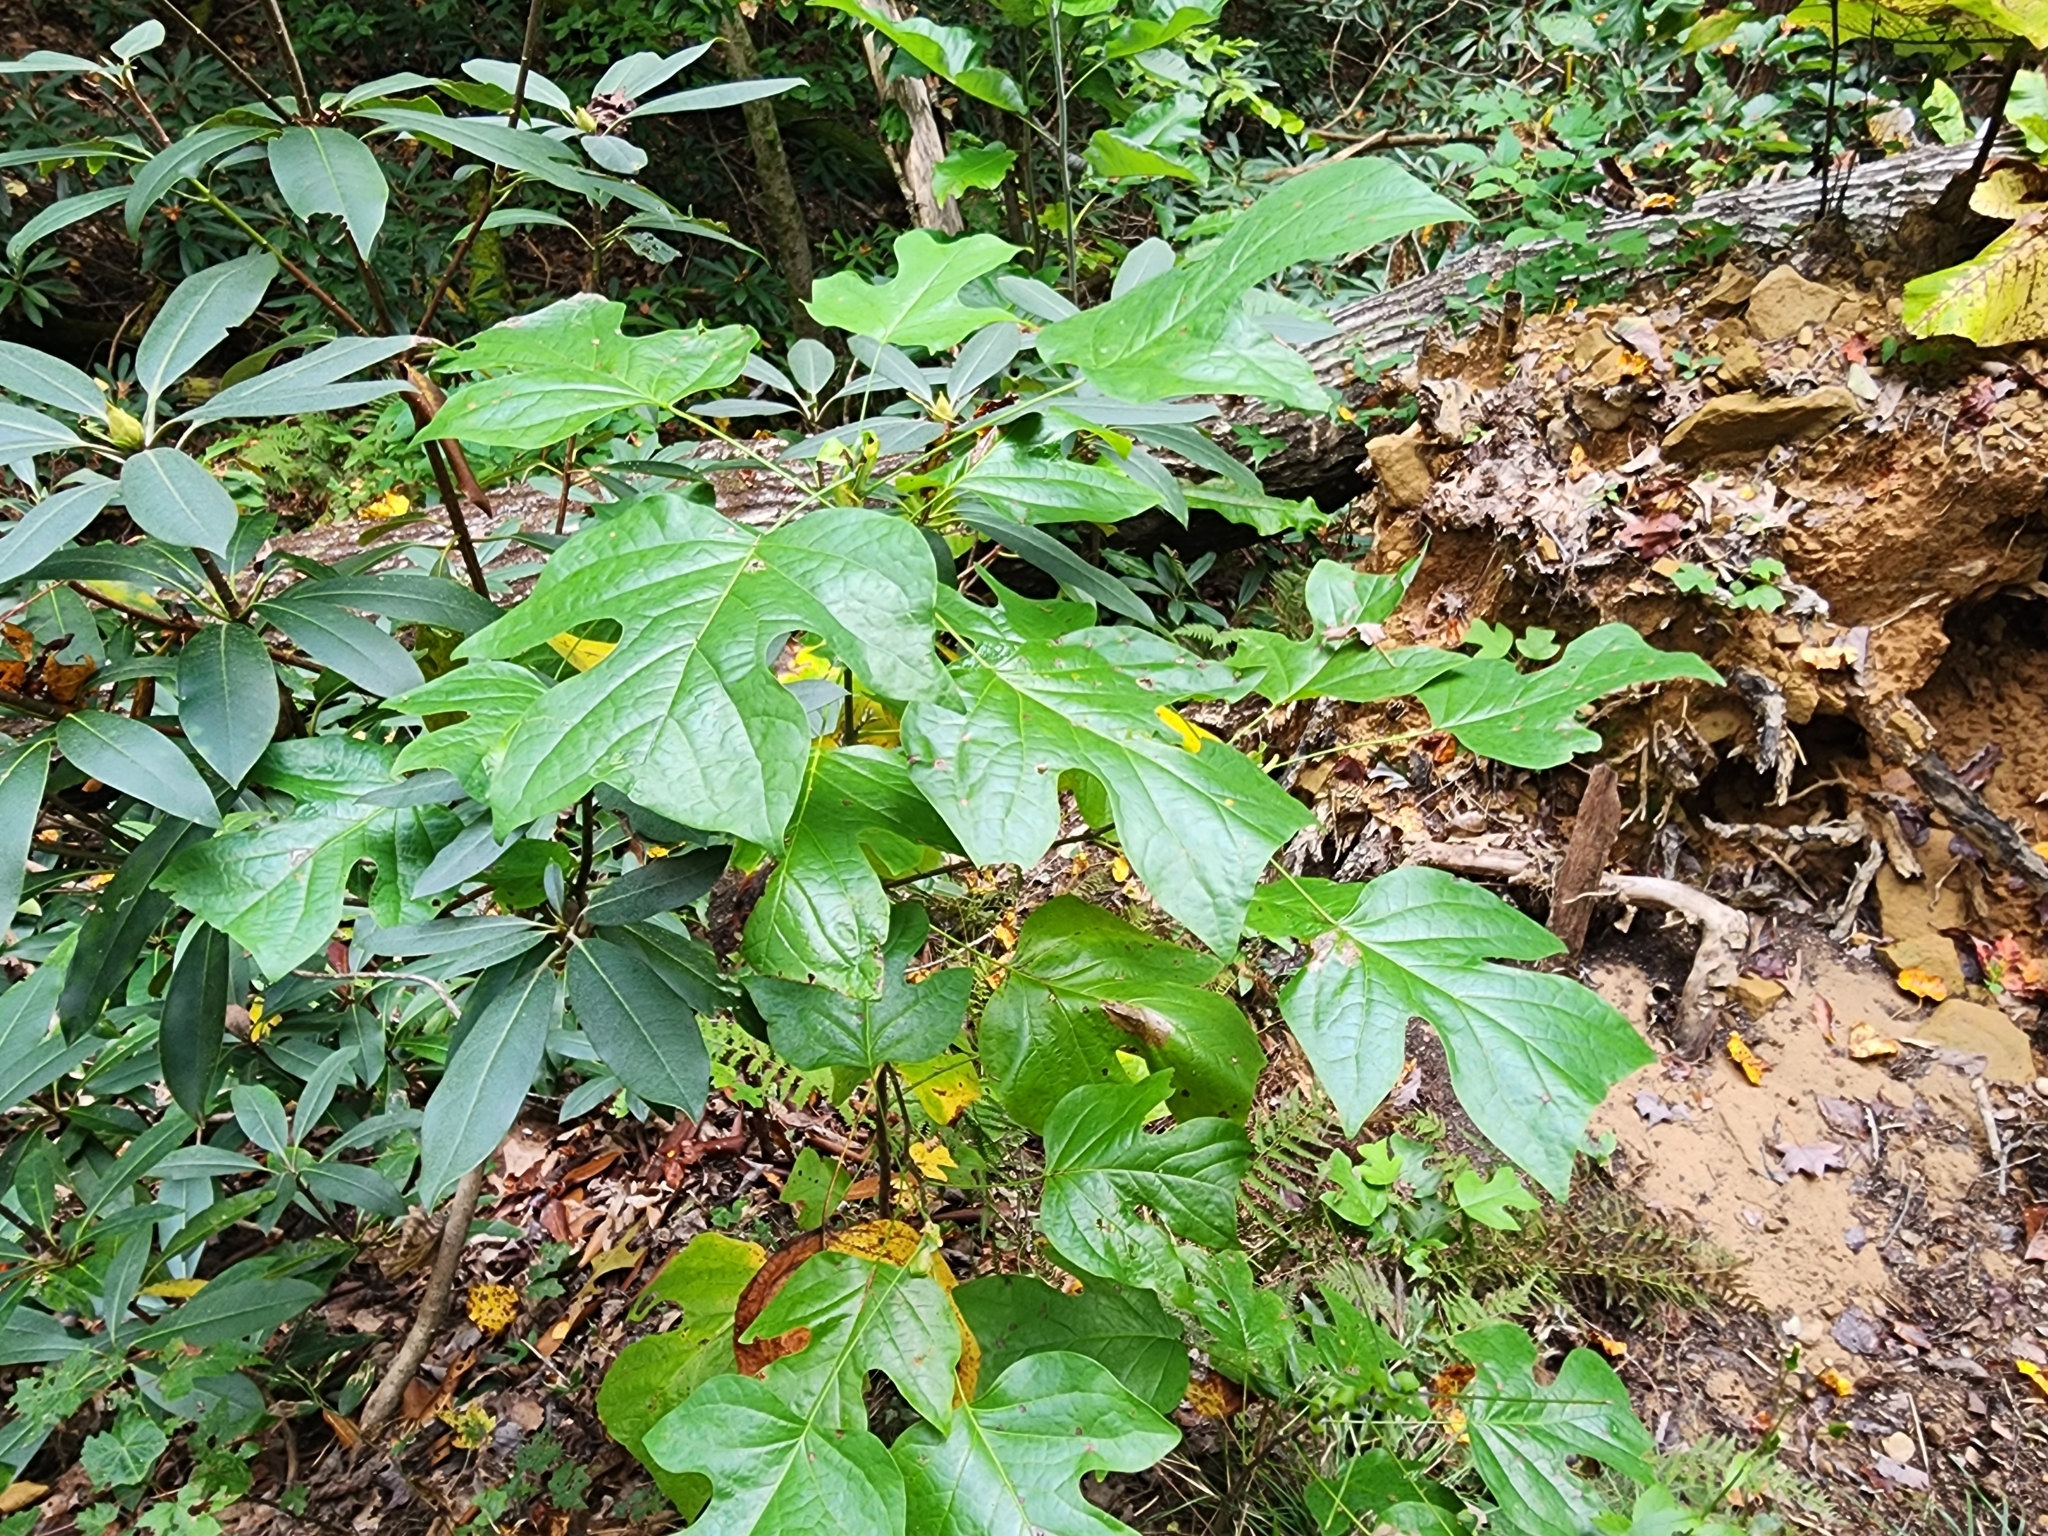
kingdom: Plantae
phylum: Tracheophyta
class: Magnoliopsida
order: Magnoliales
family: Magnoliaceae
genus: Liriodendron
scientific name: Liriodendron tulipifera
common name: Tulip tree
